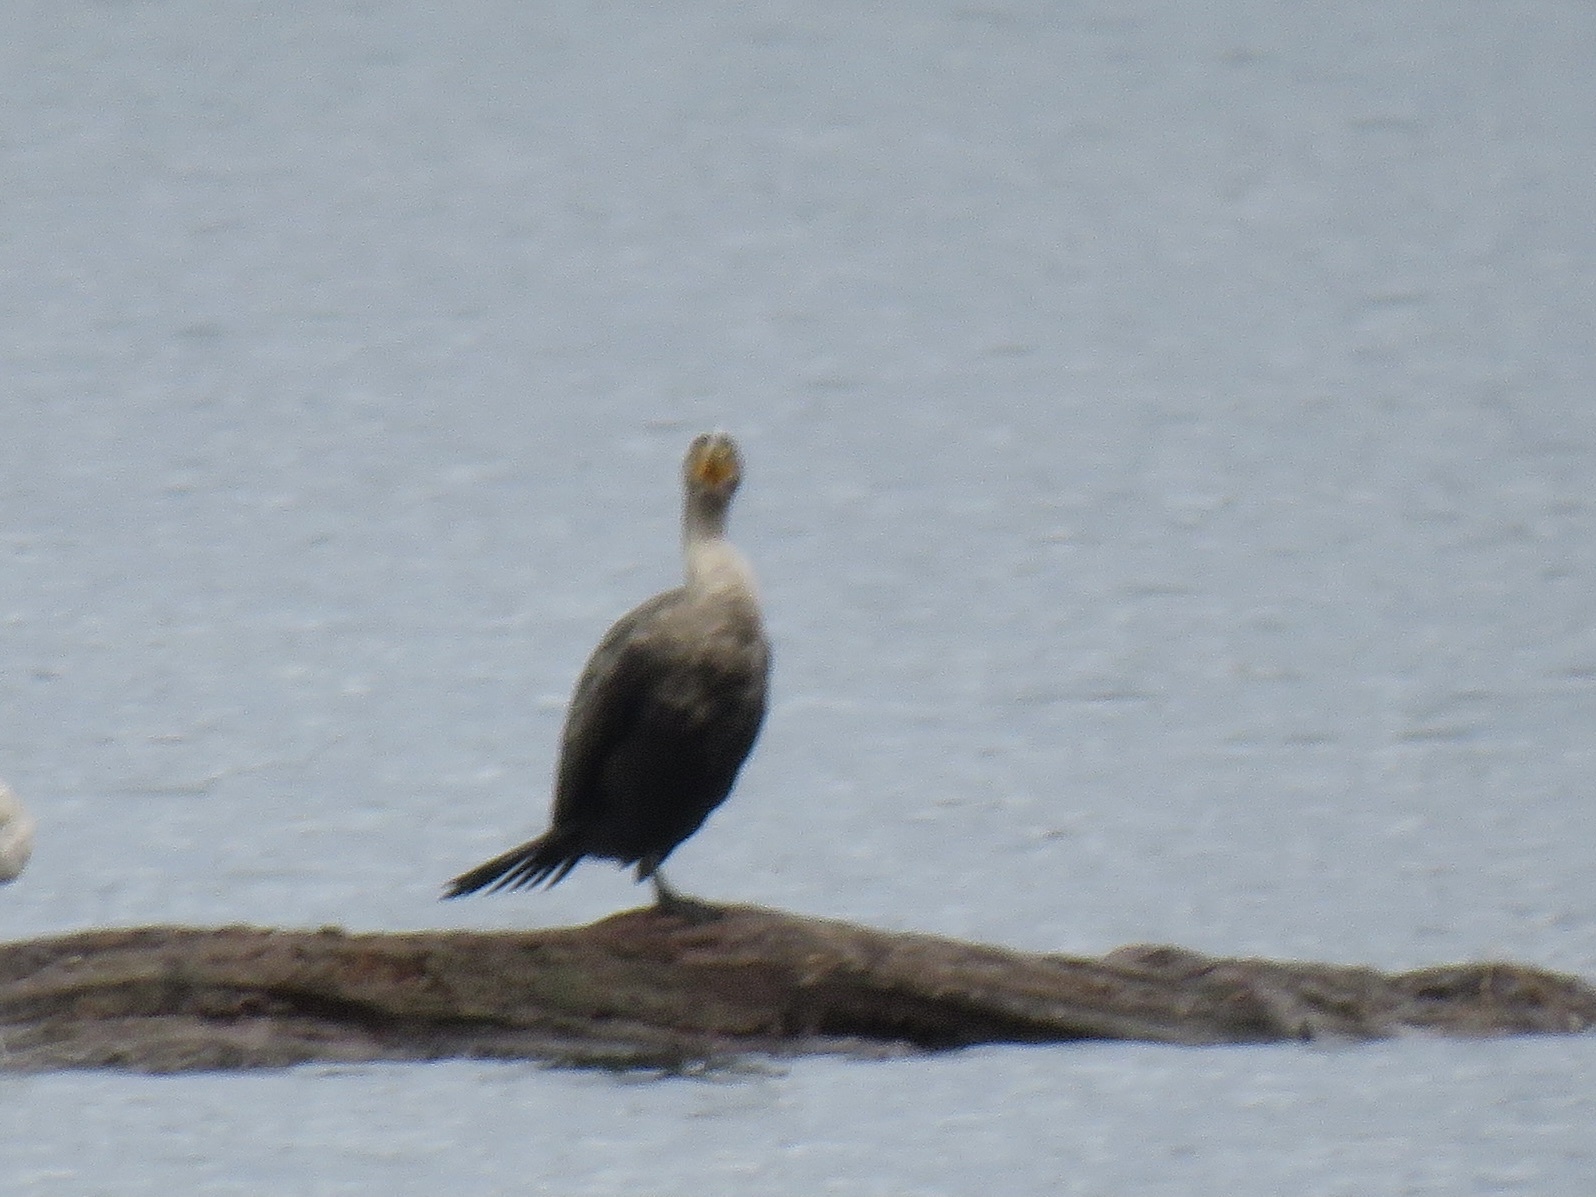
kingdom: Animalia
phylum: Chordata
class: Aves
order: Suliformes
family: Phalacrocoracidae
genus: Phalacrocorax
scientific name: Phalacrocorax auritus
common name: Double-crested cormorant
